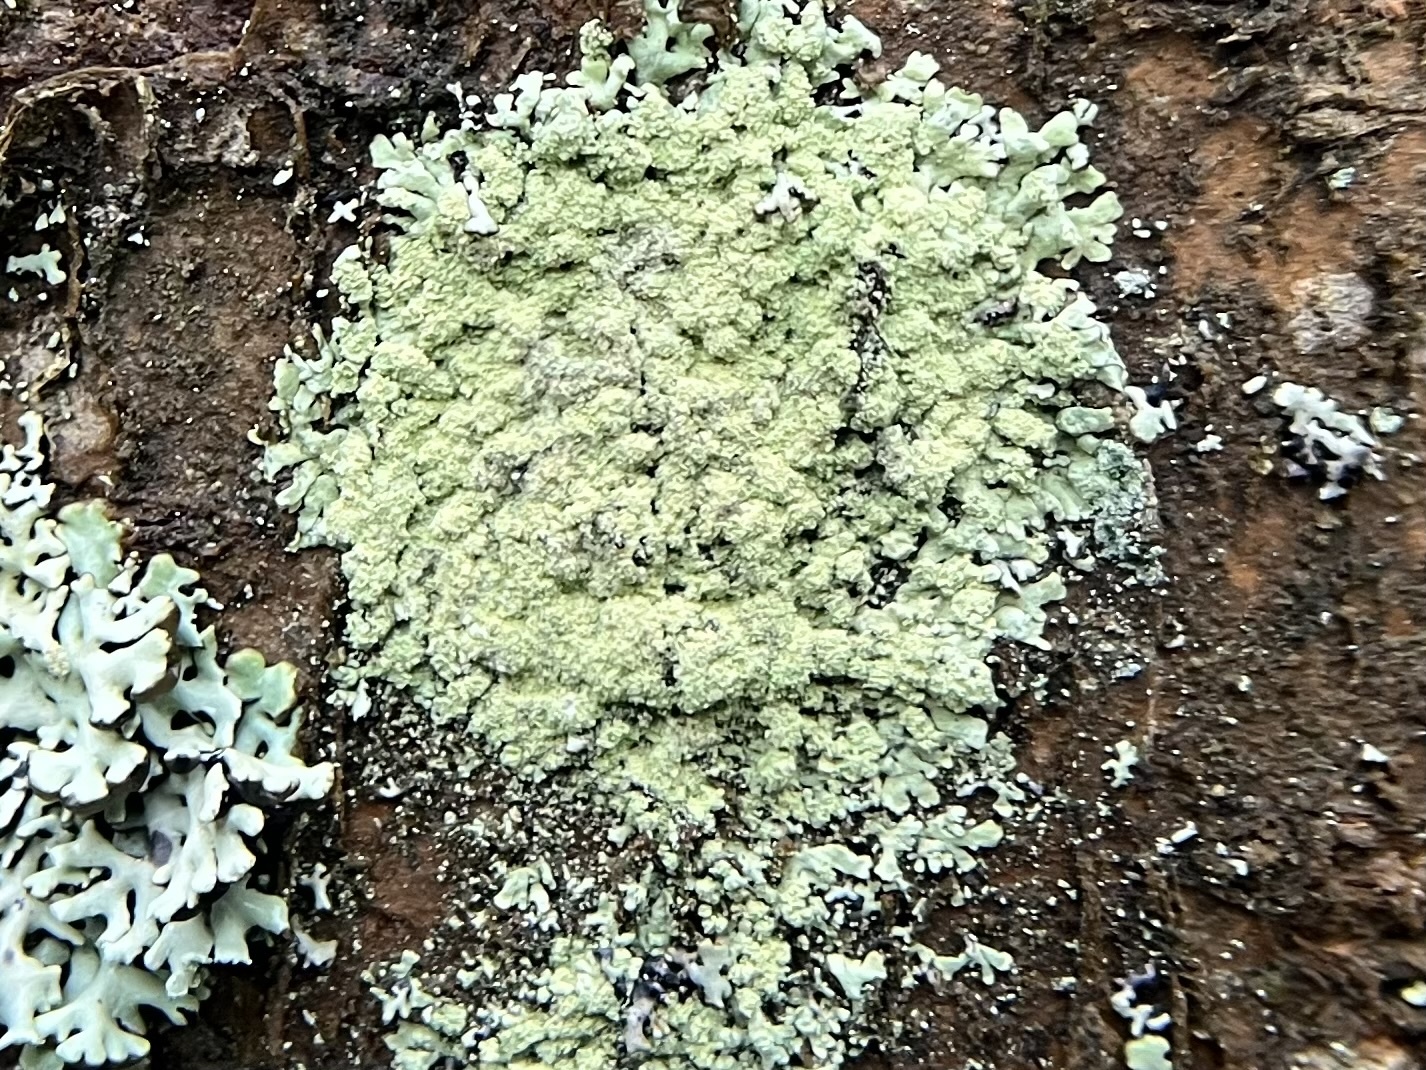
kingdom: Fungi
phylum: Ascomycota
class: Lecanoromycetes
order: Lecanorales
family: Parmeliaceae
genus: Parmeliopsis
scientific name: Parmeliopsis ambigua
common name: Green starburst lichen
